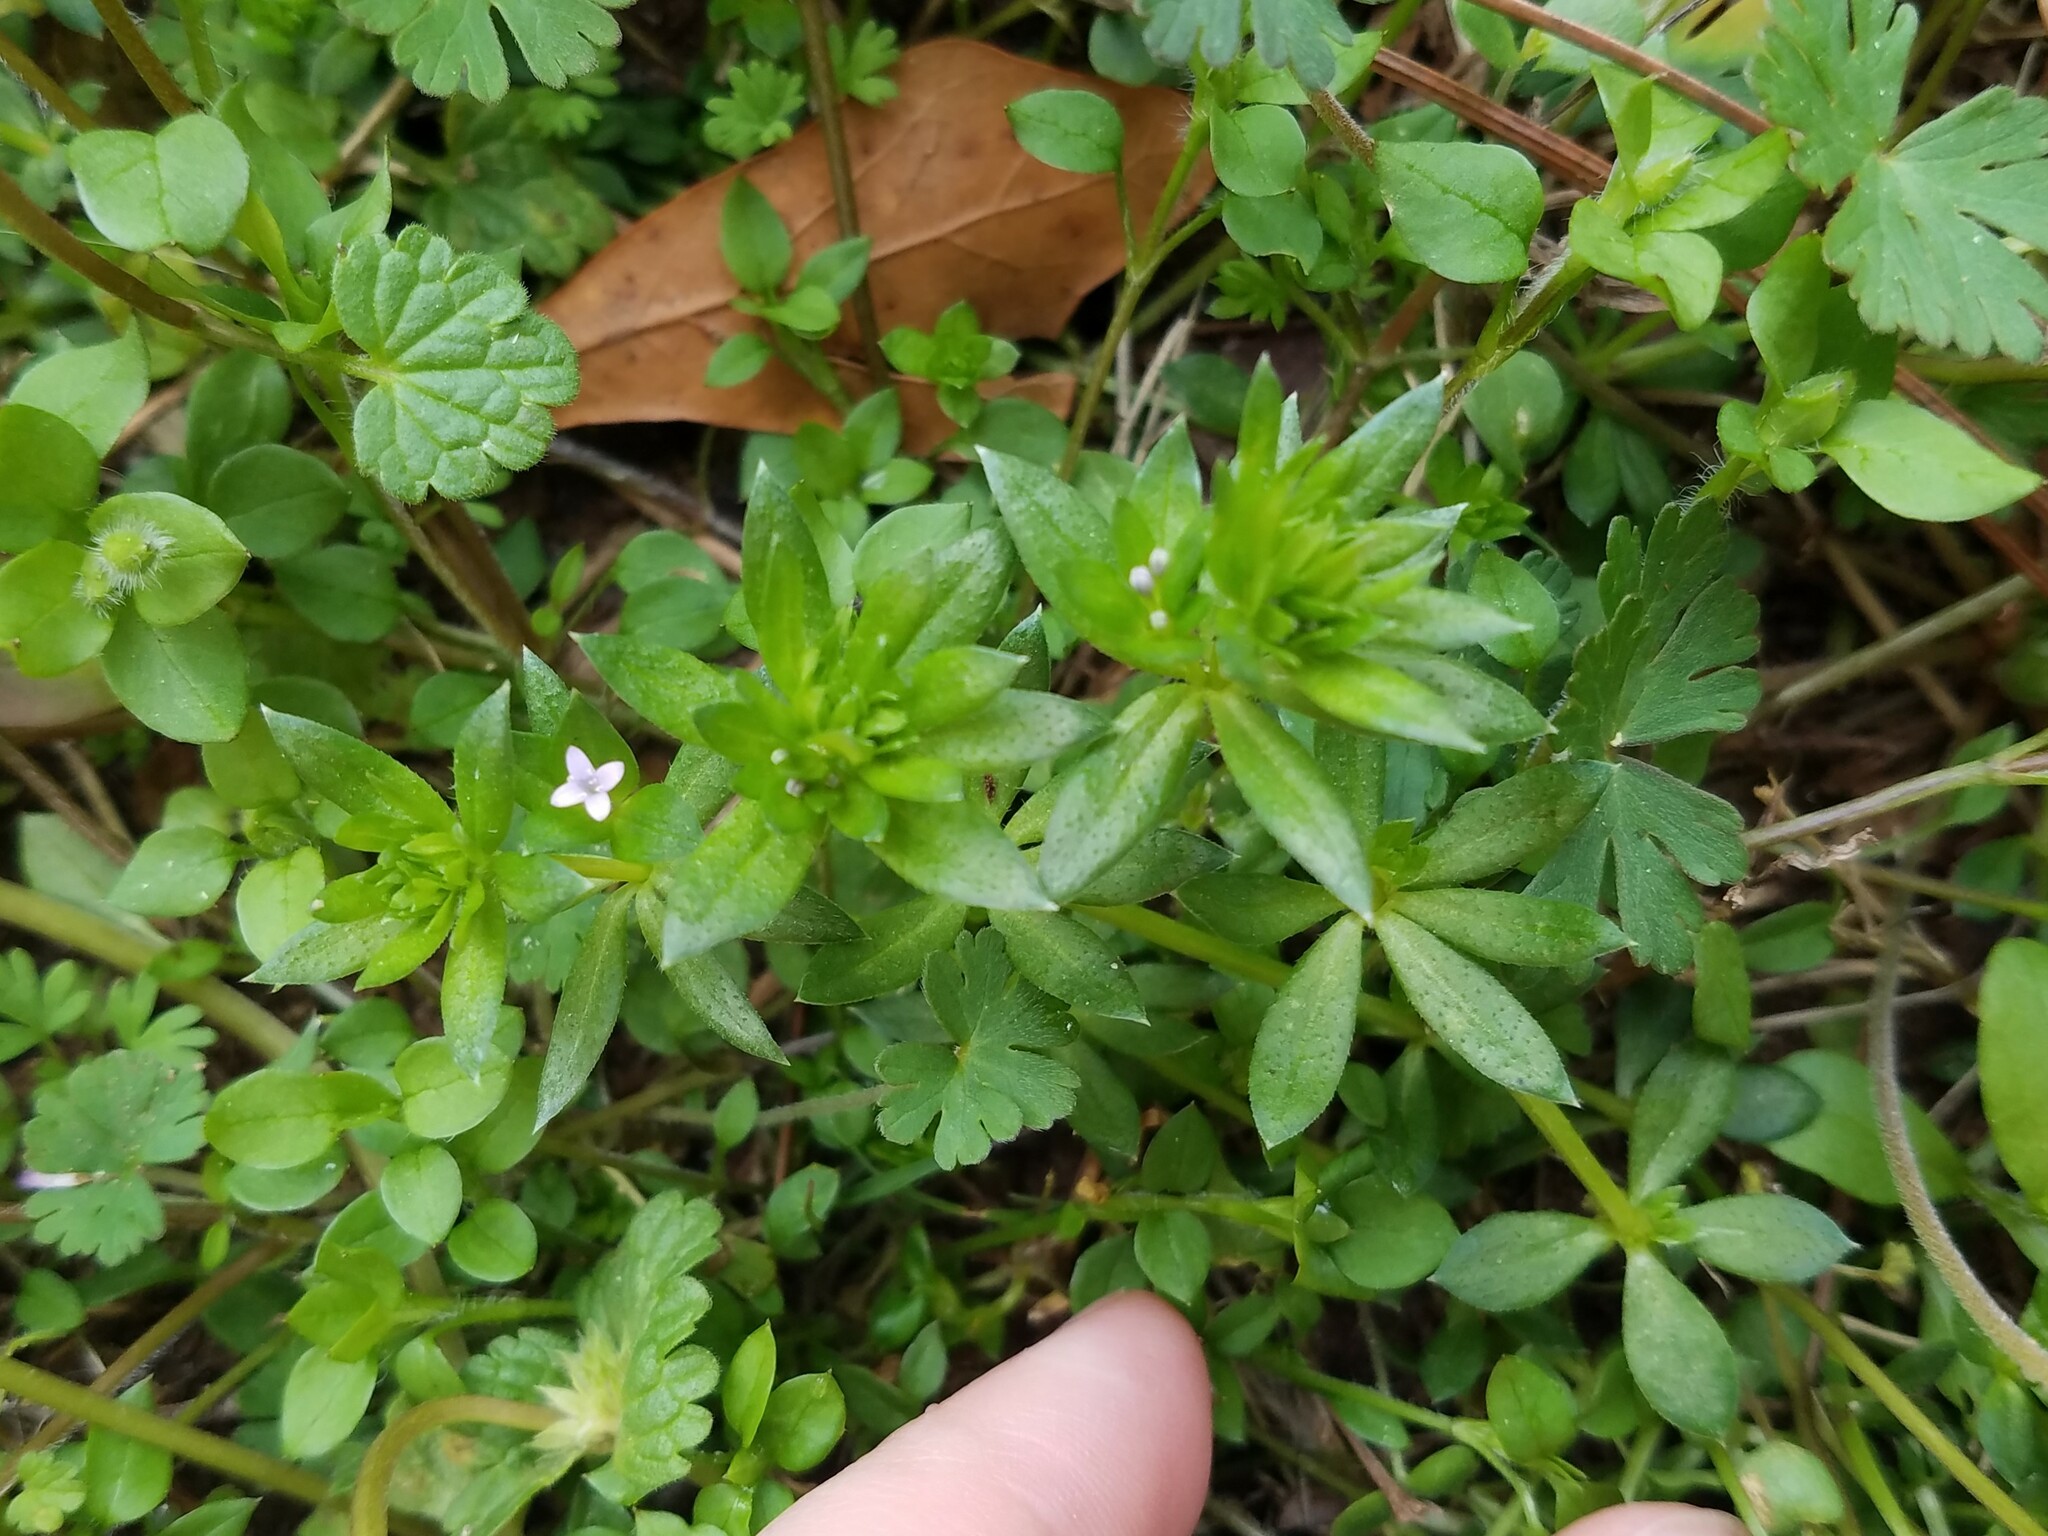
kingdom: Plantae
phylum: Tracheophyta
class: Magnoliopsida
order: Gentianales
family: Rubiaceae
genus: Sherardia
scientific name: Sherardia arvensis
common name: Field madder
